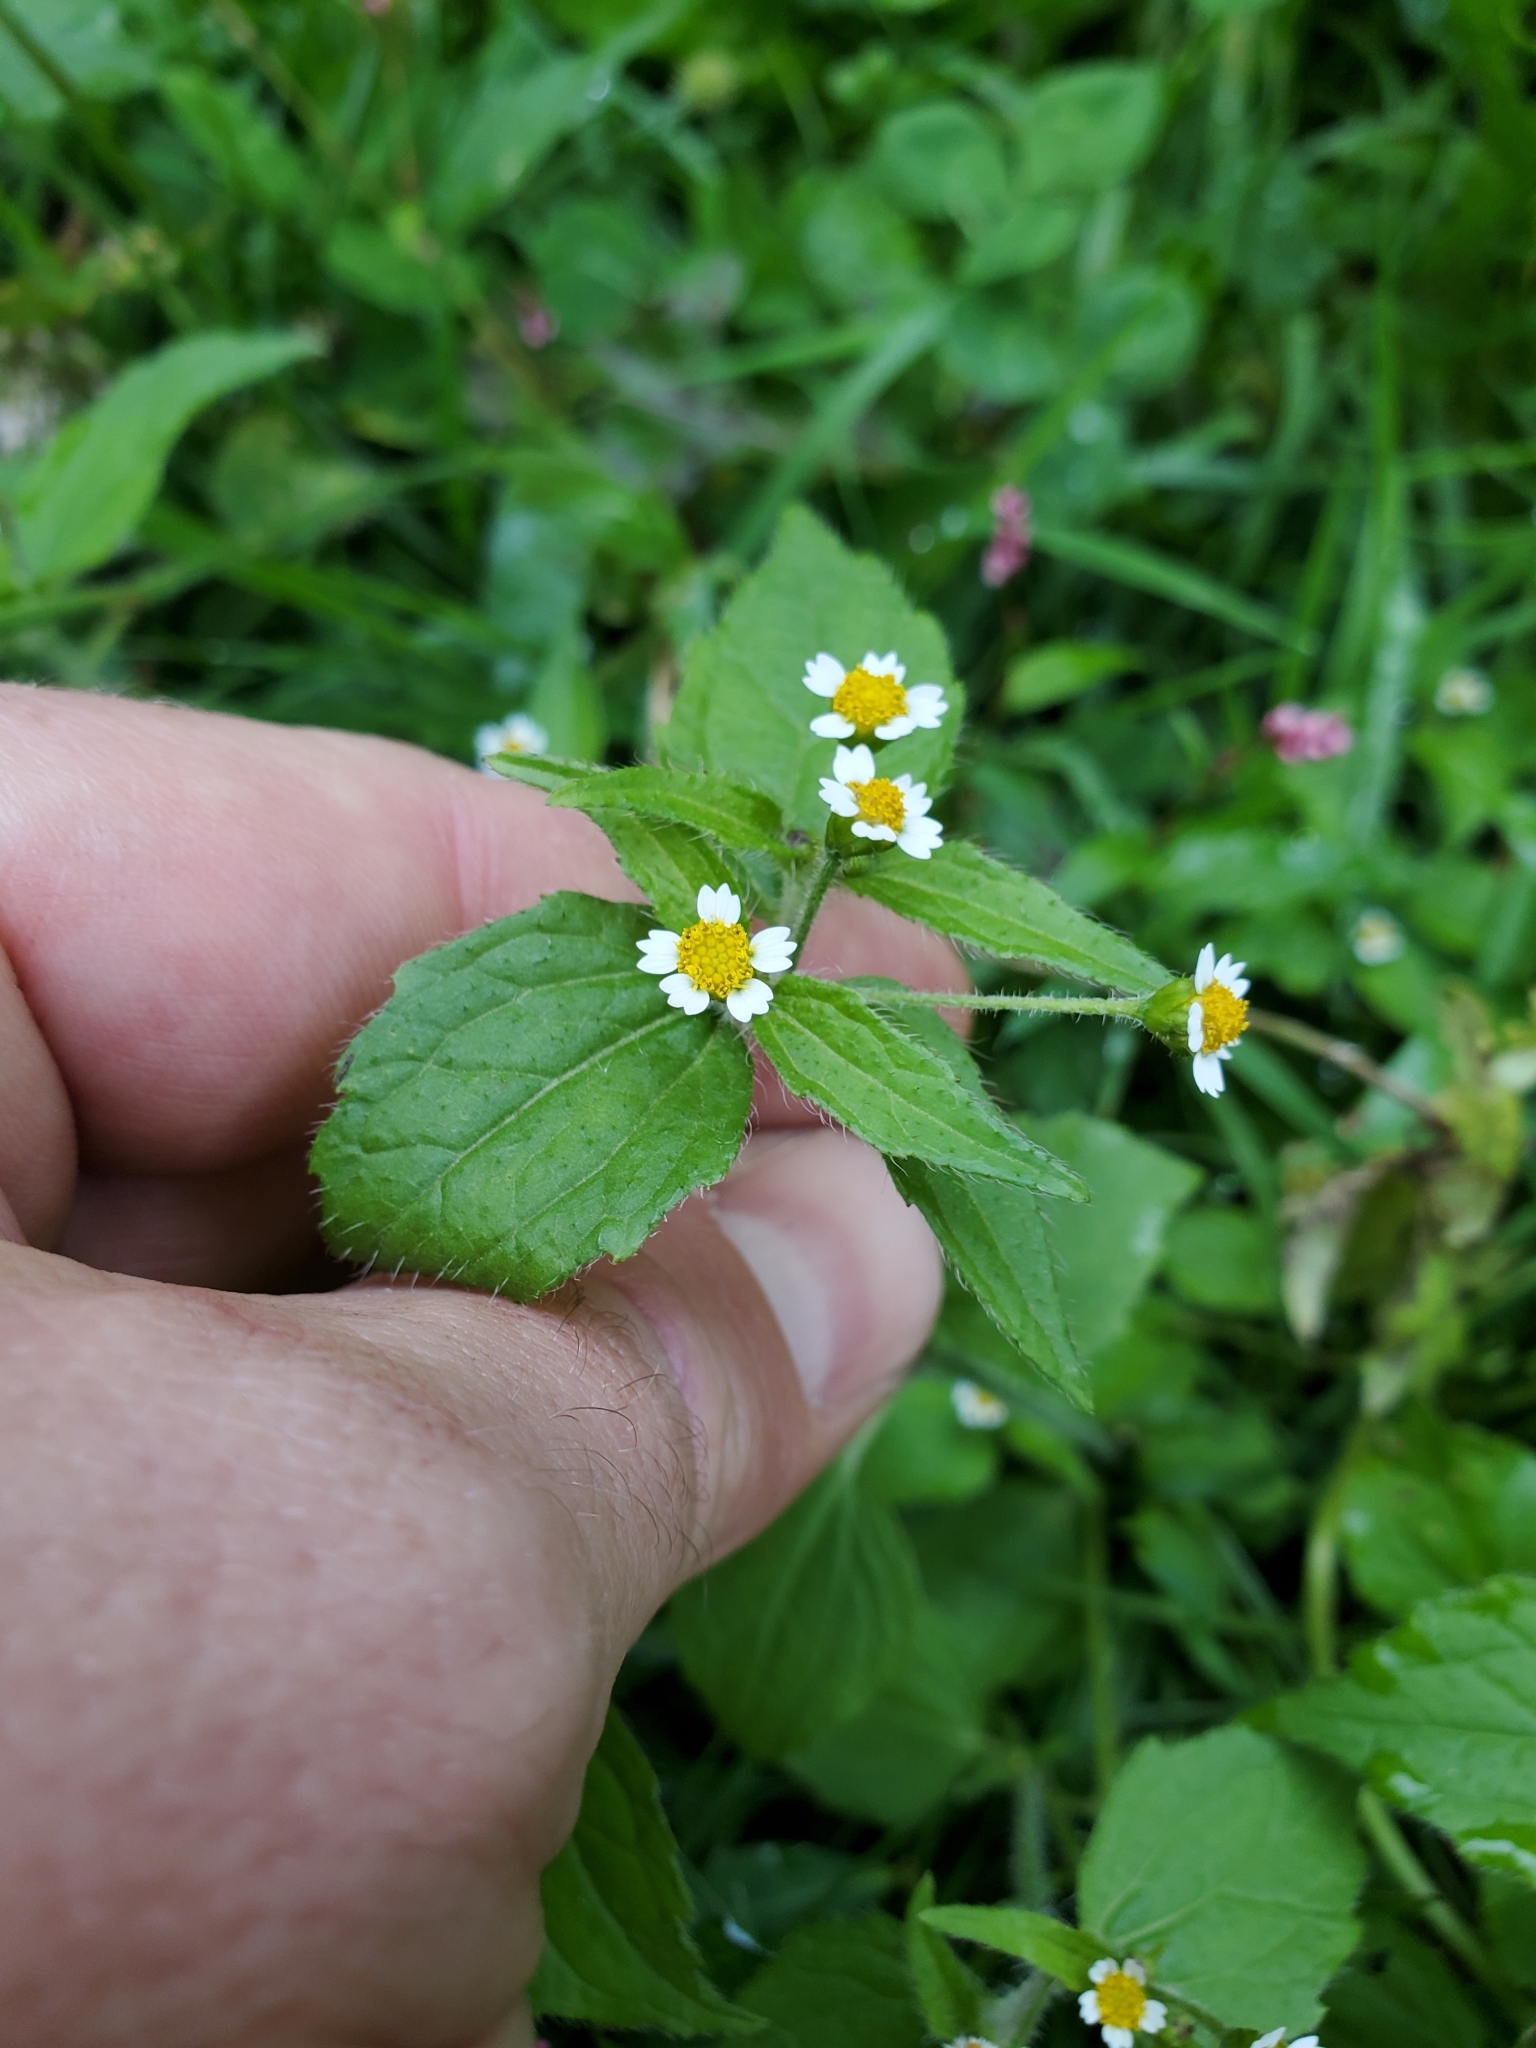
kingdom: Plantae
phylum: Tracheophyta
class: Magnoliopsida
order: Asterales
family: Asteraceae
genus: Galinsoga
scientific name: Galinsoga quadriradiata
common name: Shaggy soldier
